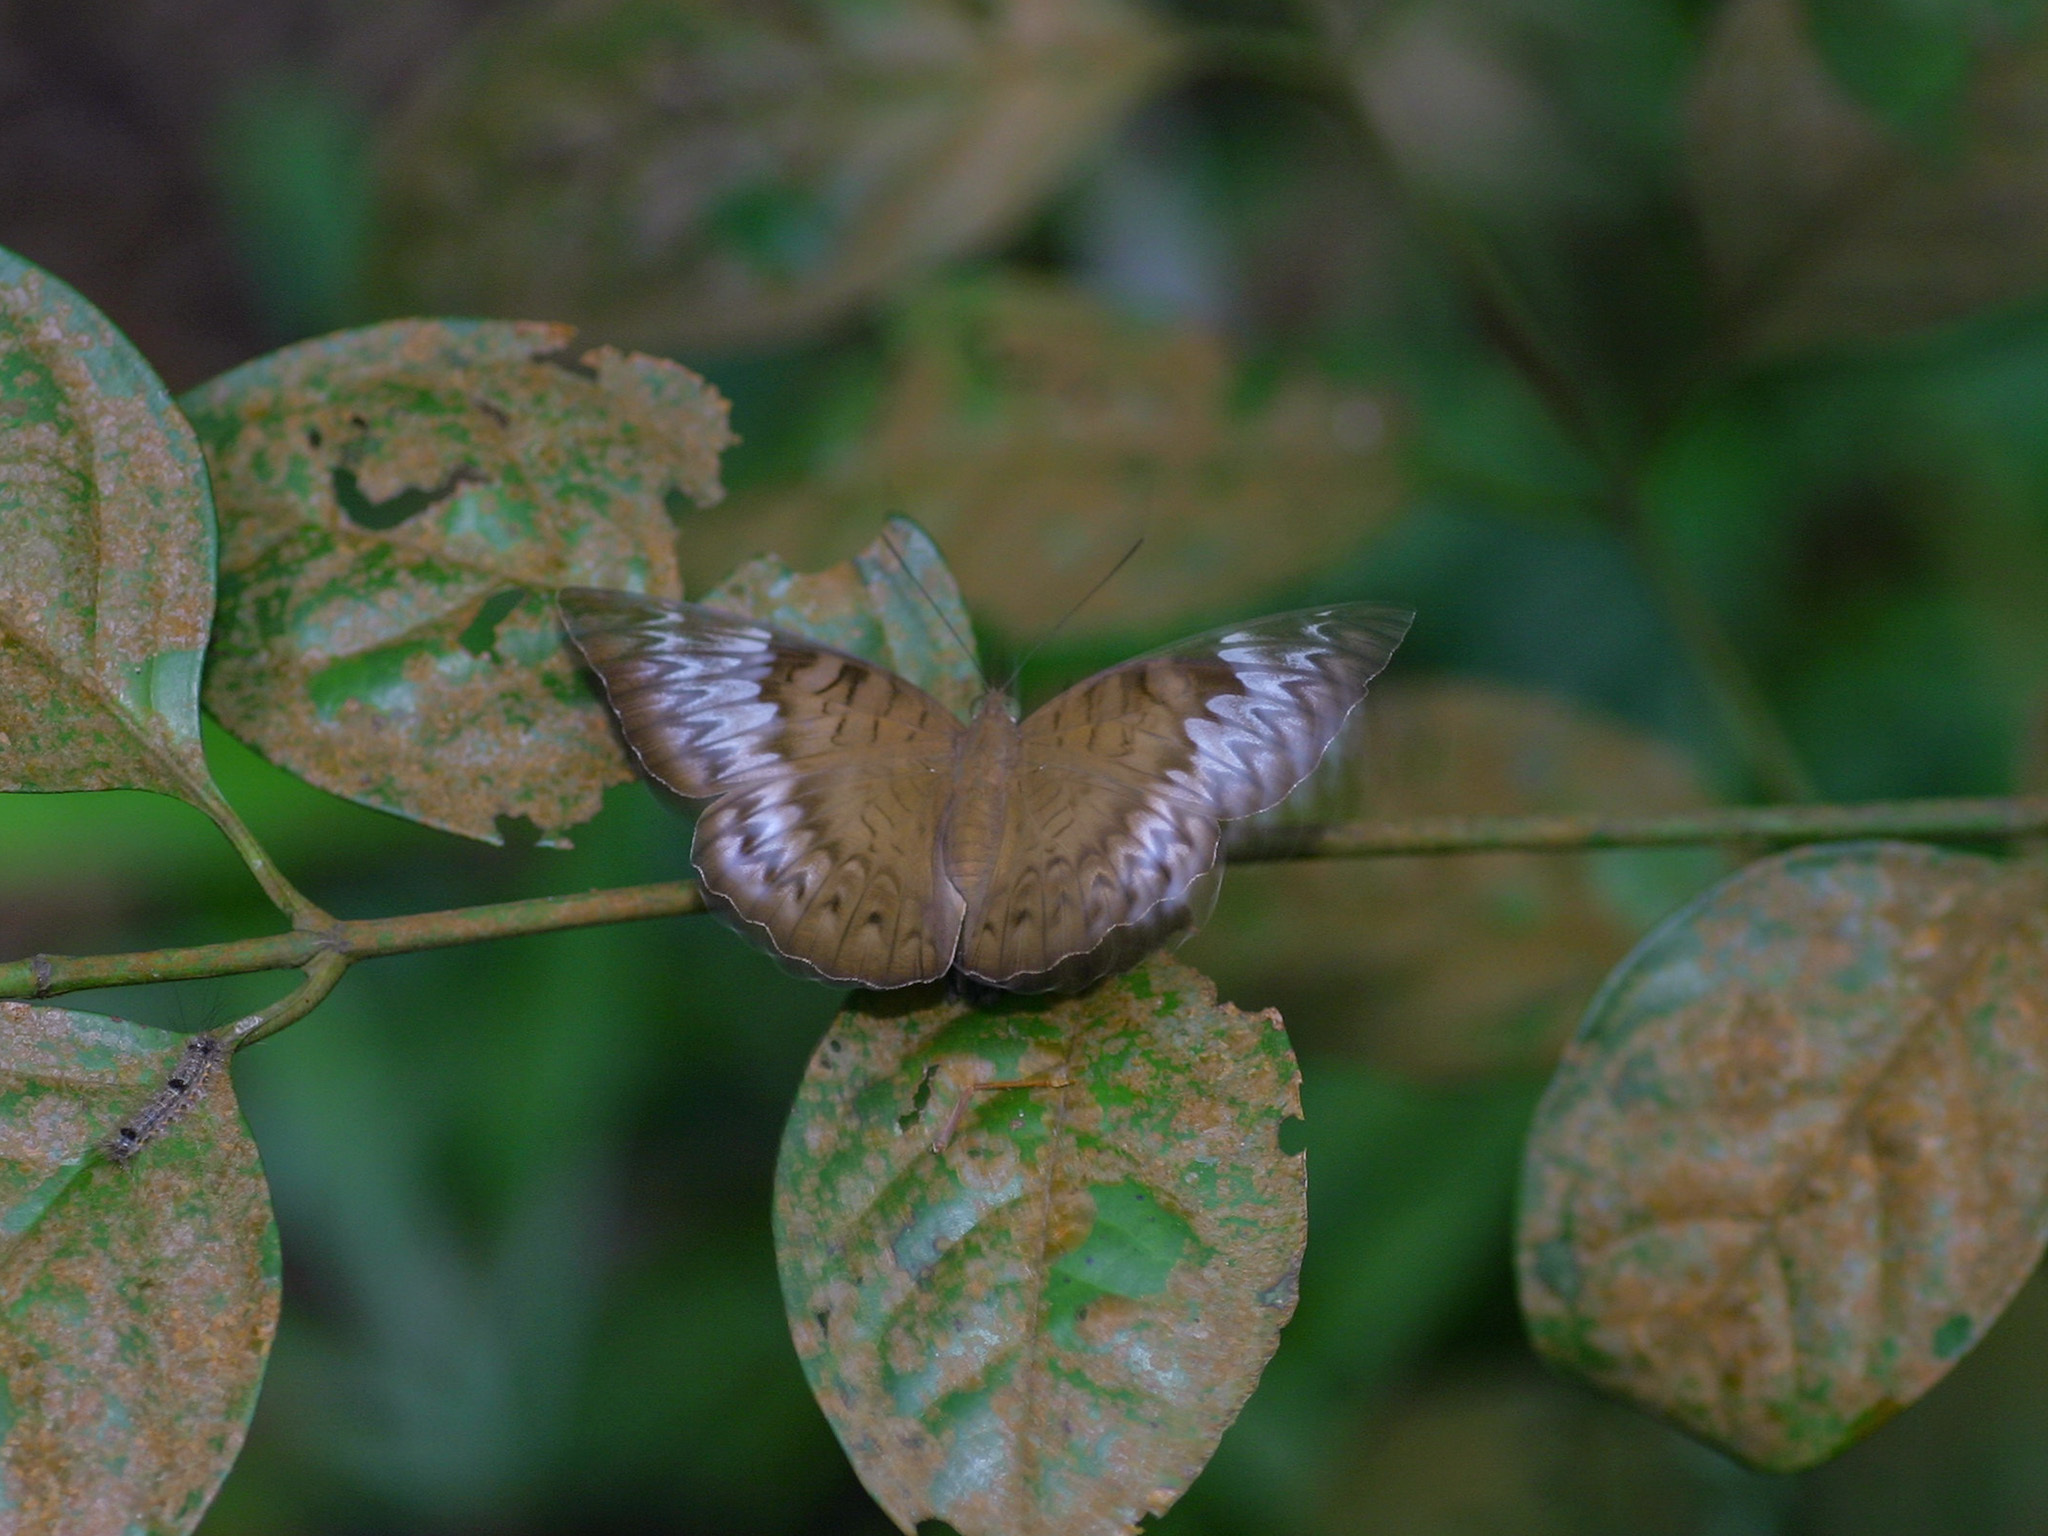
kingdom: Animalia
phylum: Arthropoda
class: Insecta
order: Lepidoptera
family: Nymphalidae
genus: Tanaecia
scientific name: Tanaecia iapis
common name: Horsfield's baron
